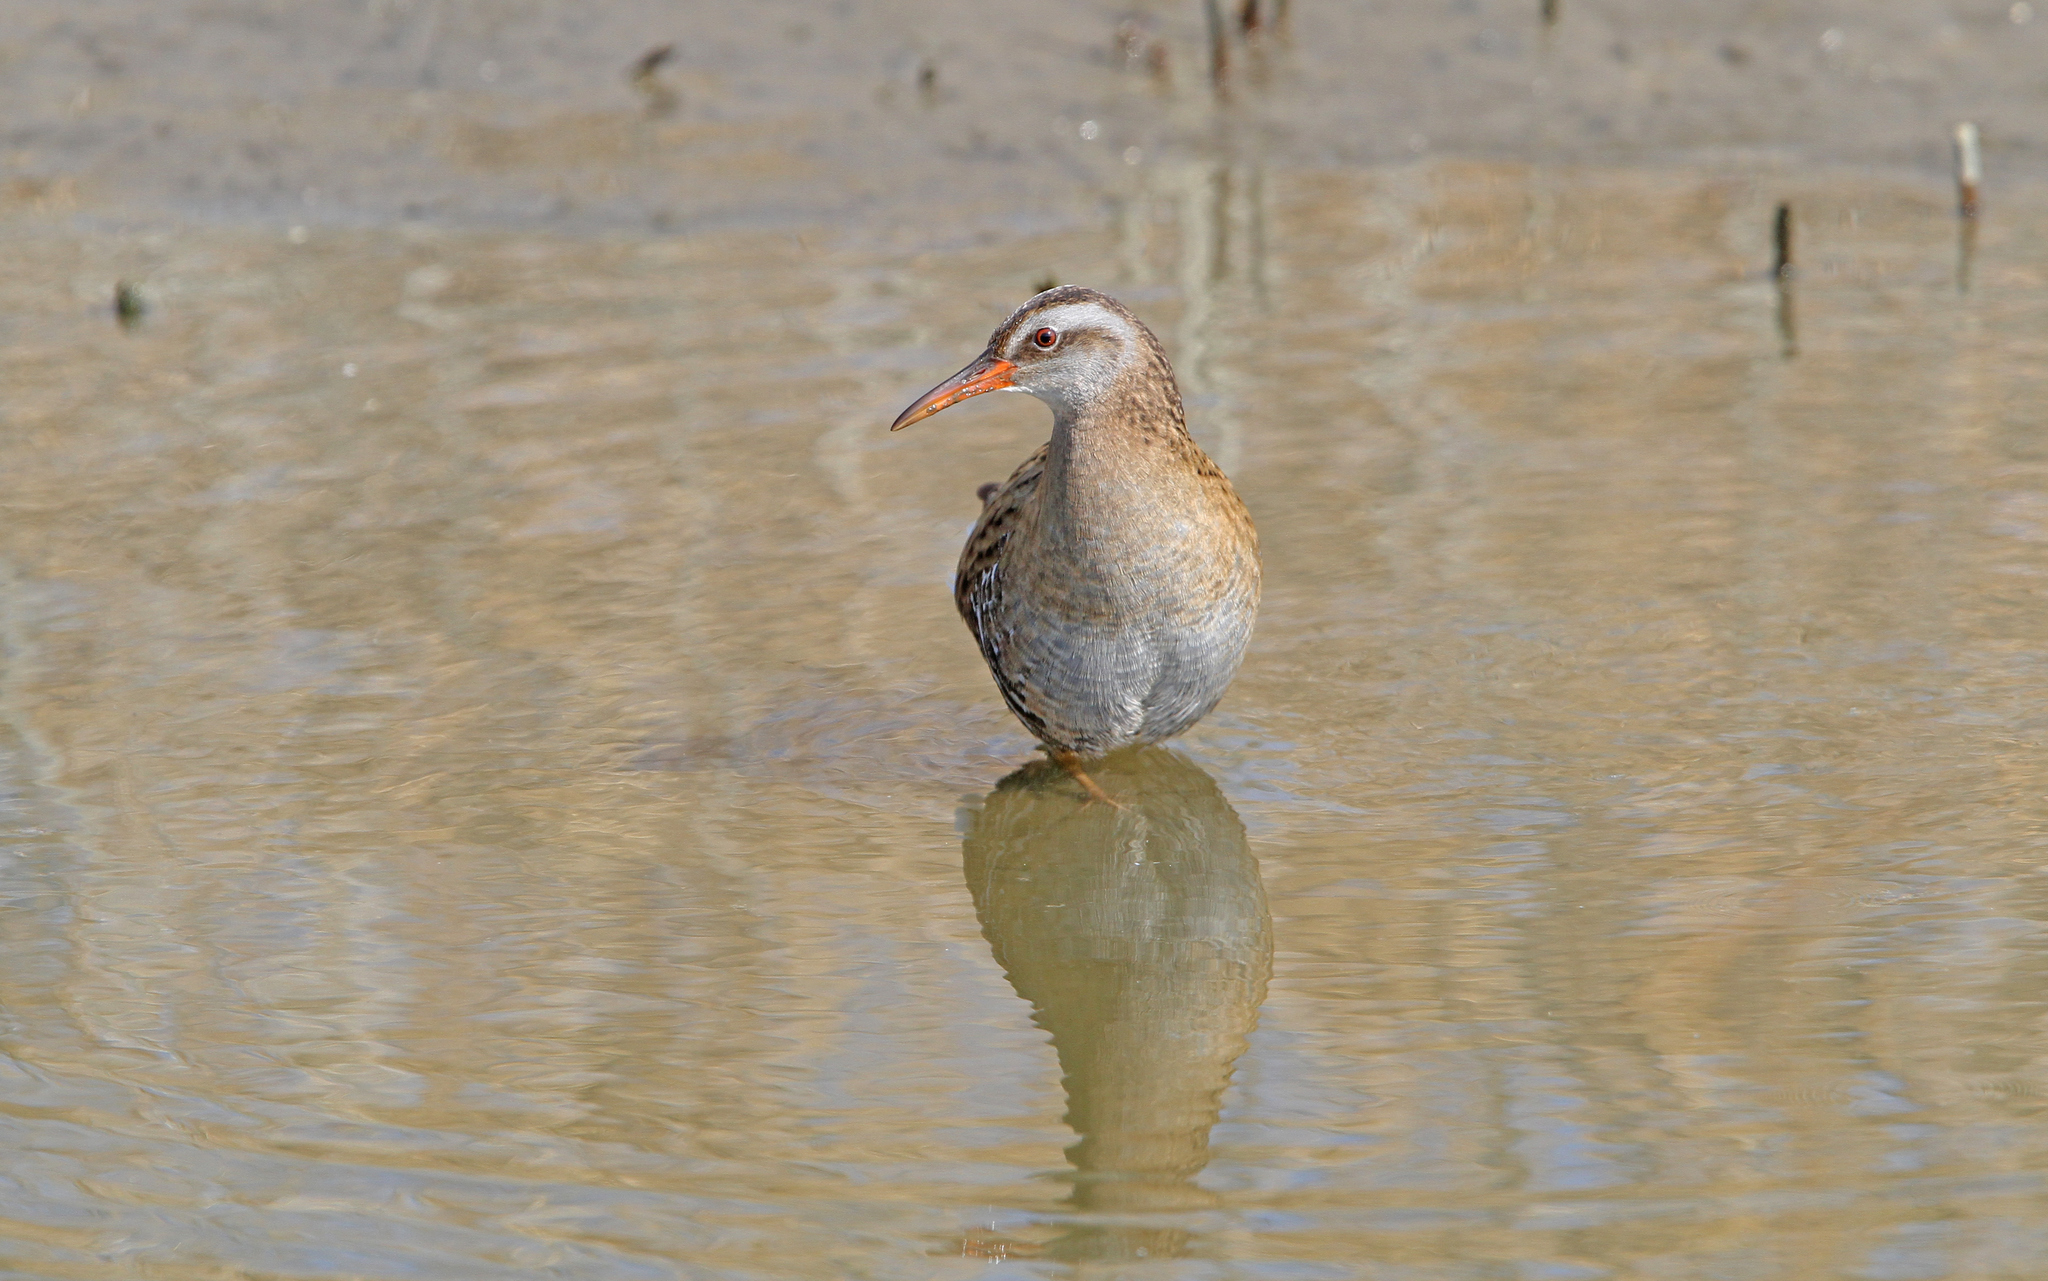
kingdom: Animalia
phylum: Chordata
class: Aves
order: Gruiformes
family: Rallidae
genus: Rallus
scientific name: Rallus indicus
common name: Brown-cheeked rail
